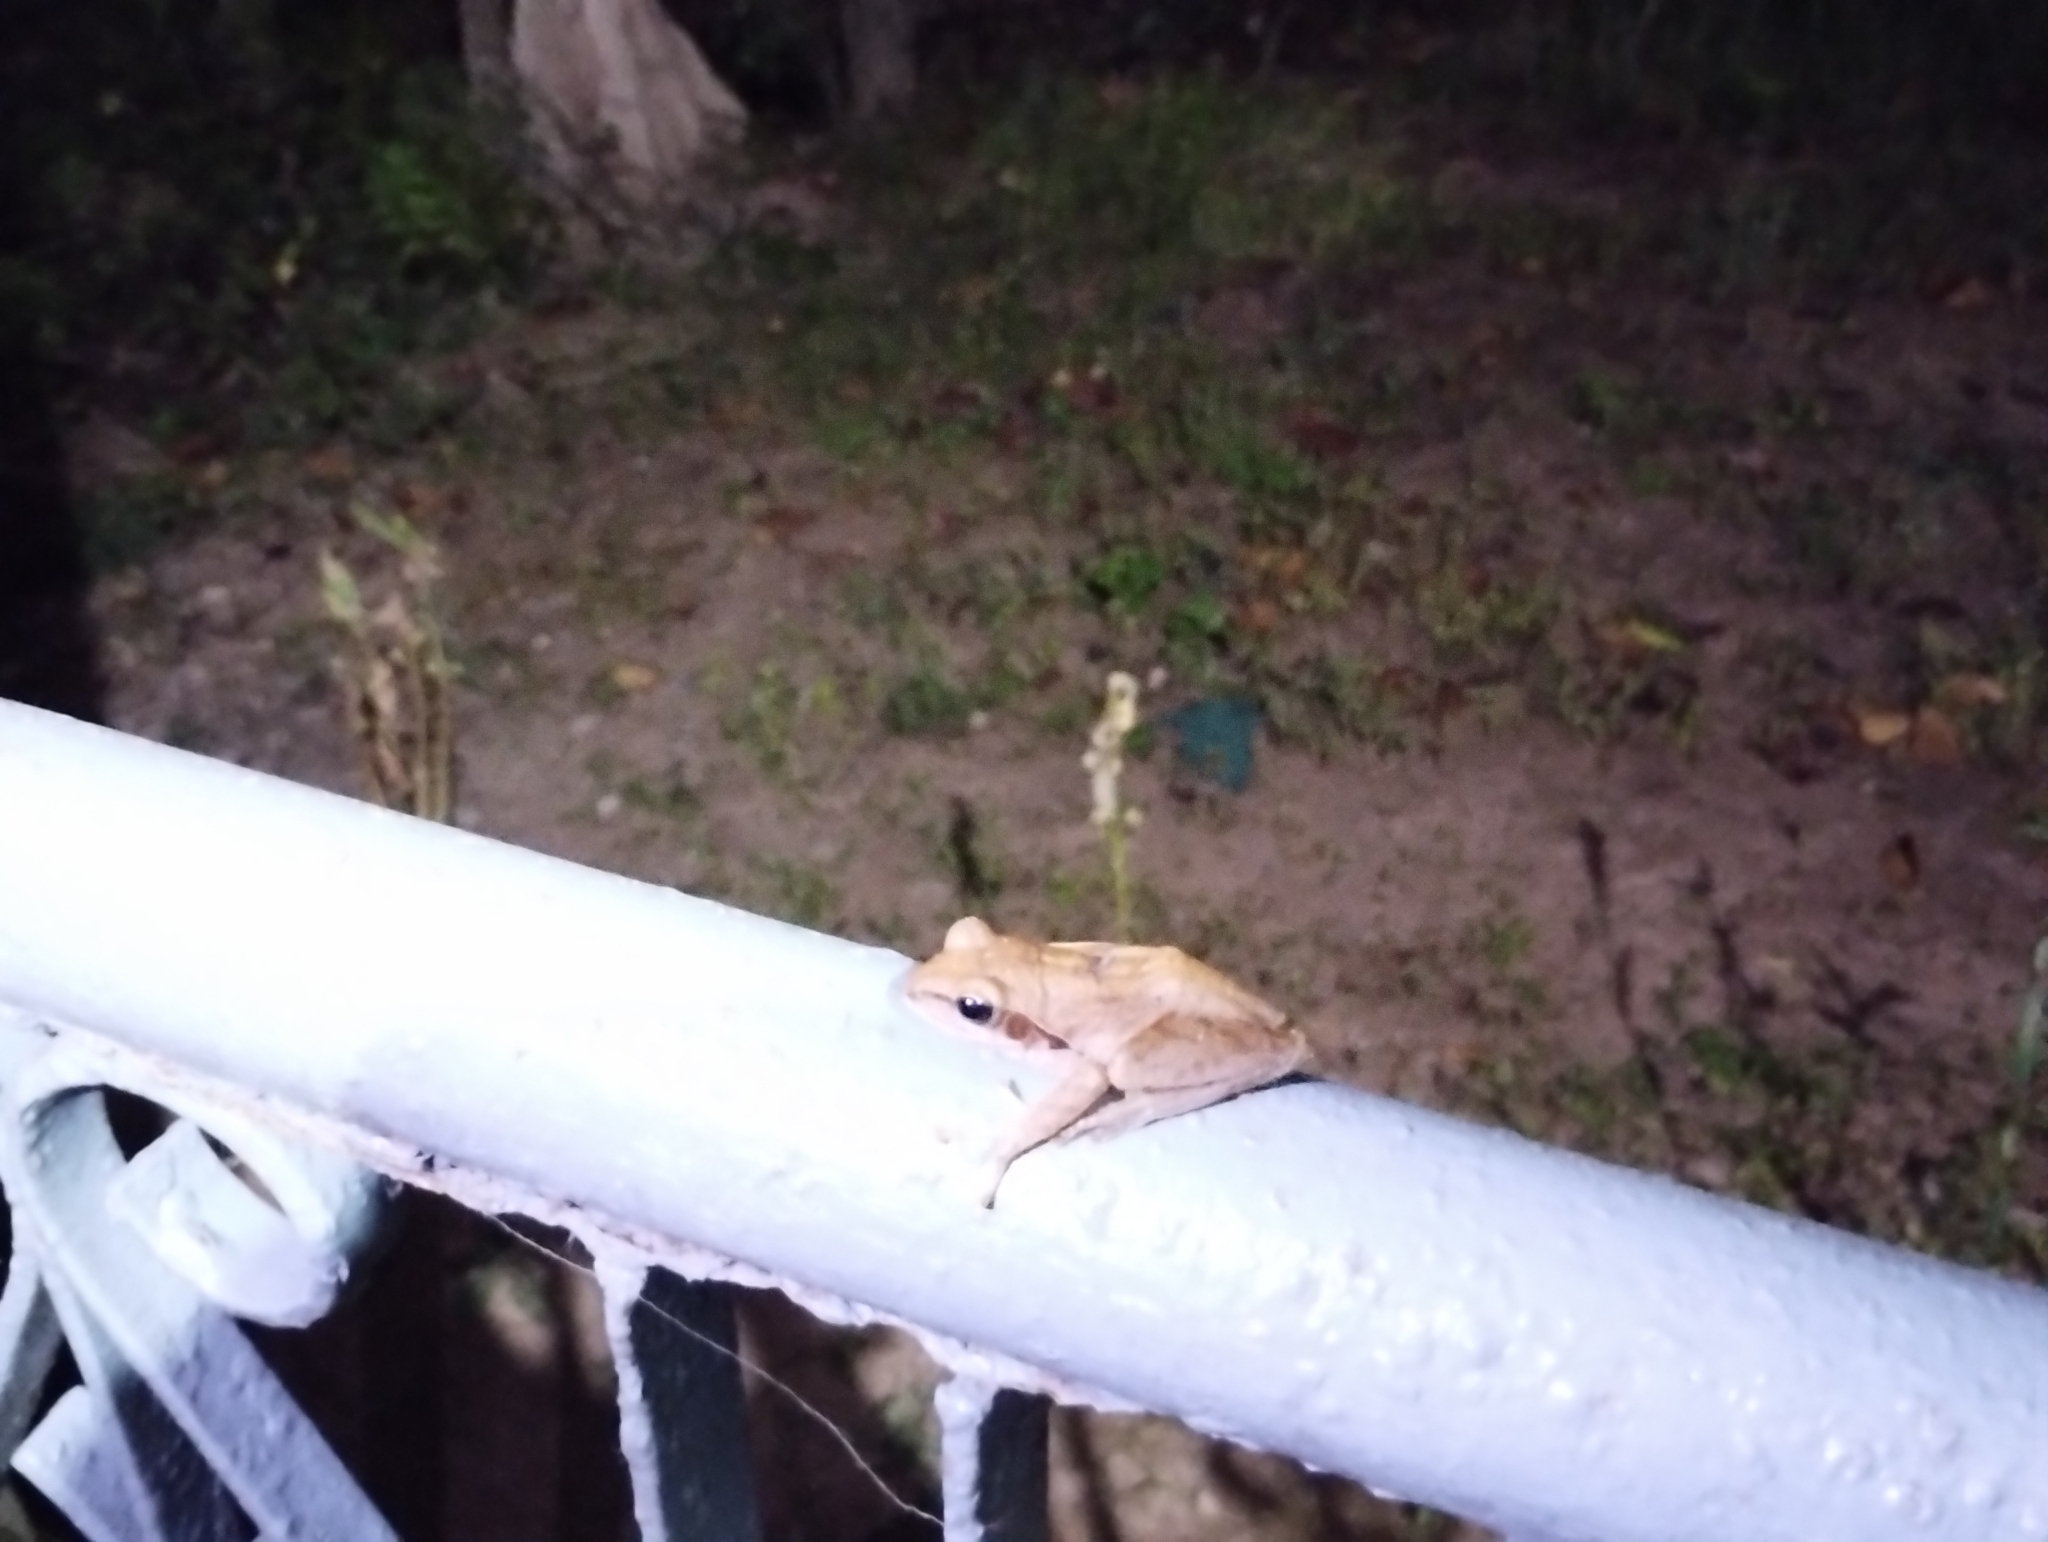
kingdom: Animalia
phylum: Chordata
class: Amphibia
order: Anura
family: Rhacophoridae
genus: Polypedates
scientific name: Polypedates maculatus
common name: Himalayan tree frog
